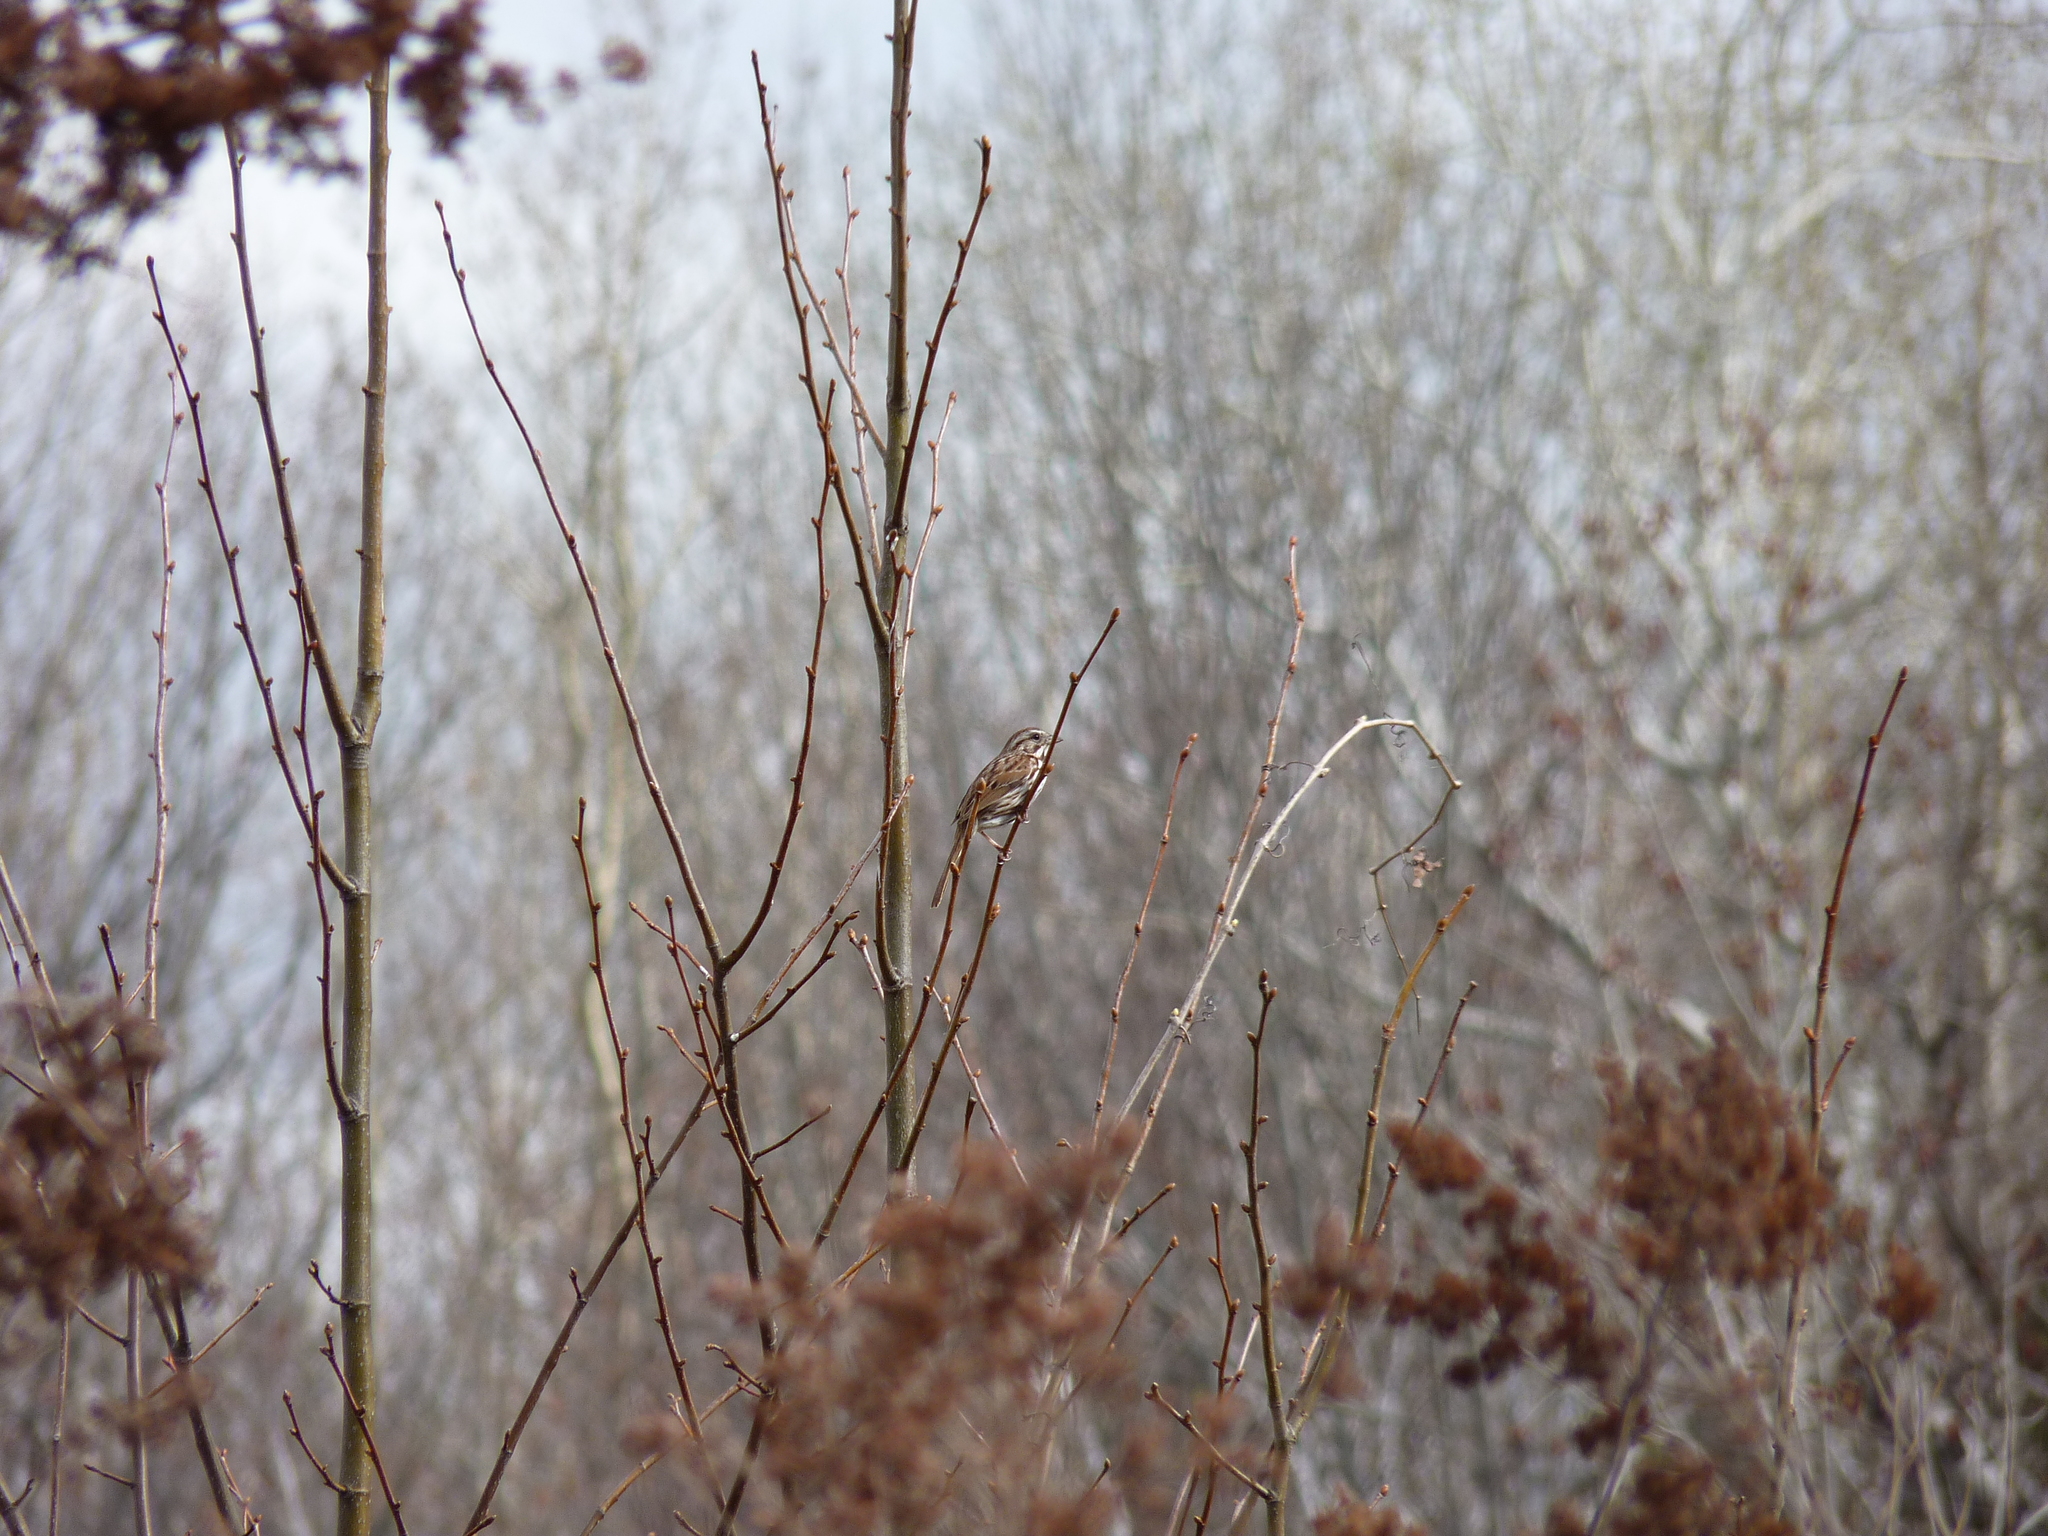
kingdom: Animalia
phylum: Chordata
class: Aves
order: Passeriformes
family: Passerellidae
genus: Melospiza
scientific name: Melospiza melodia
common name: Song sparrow
